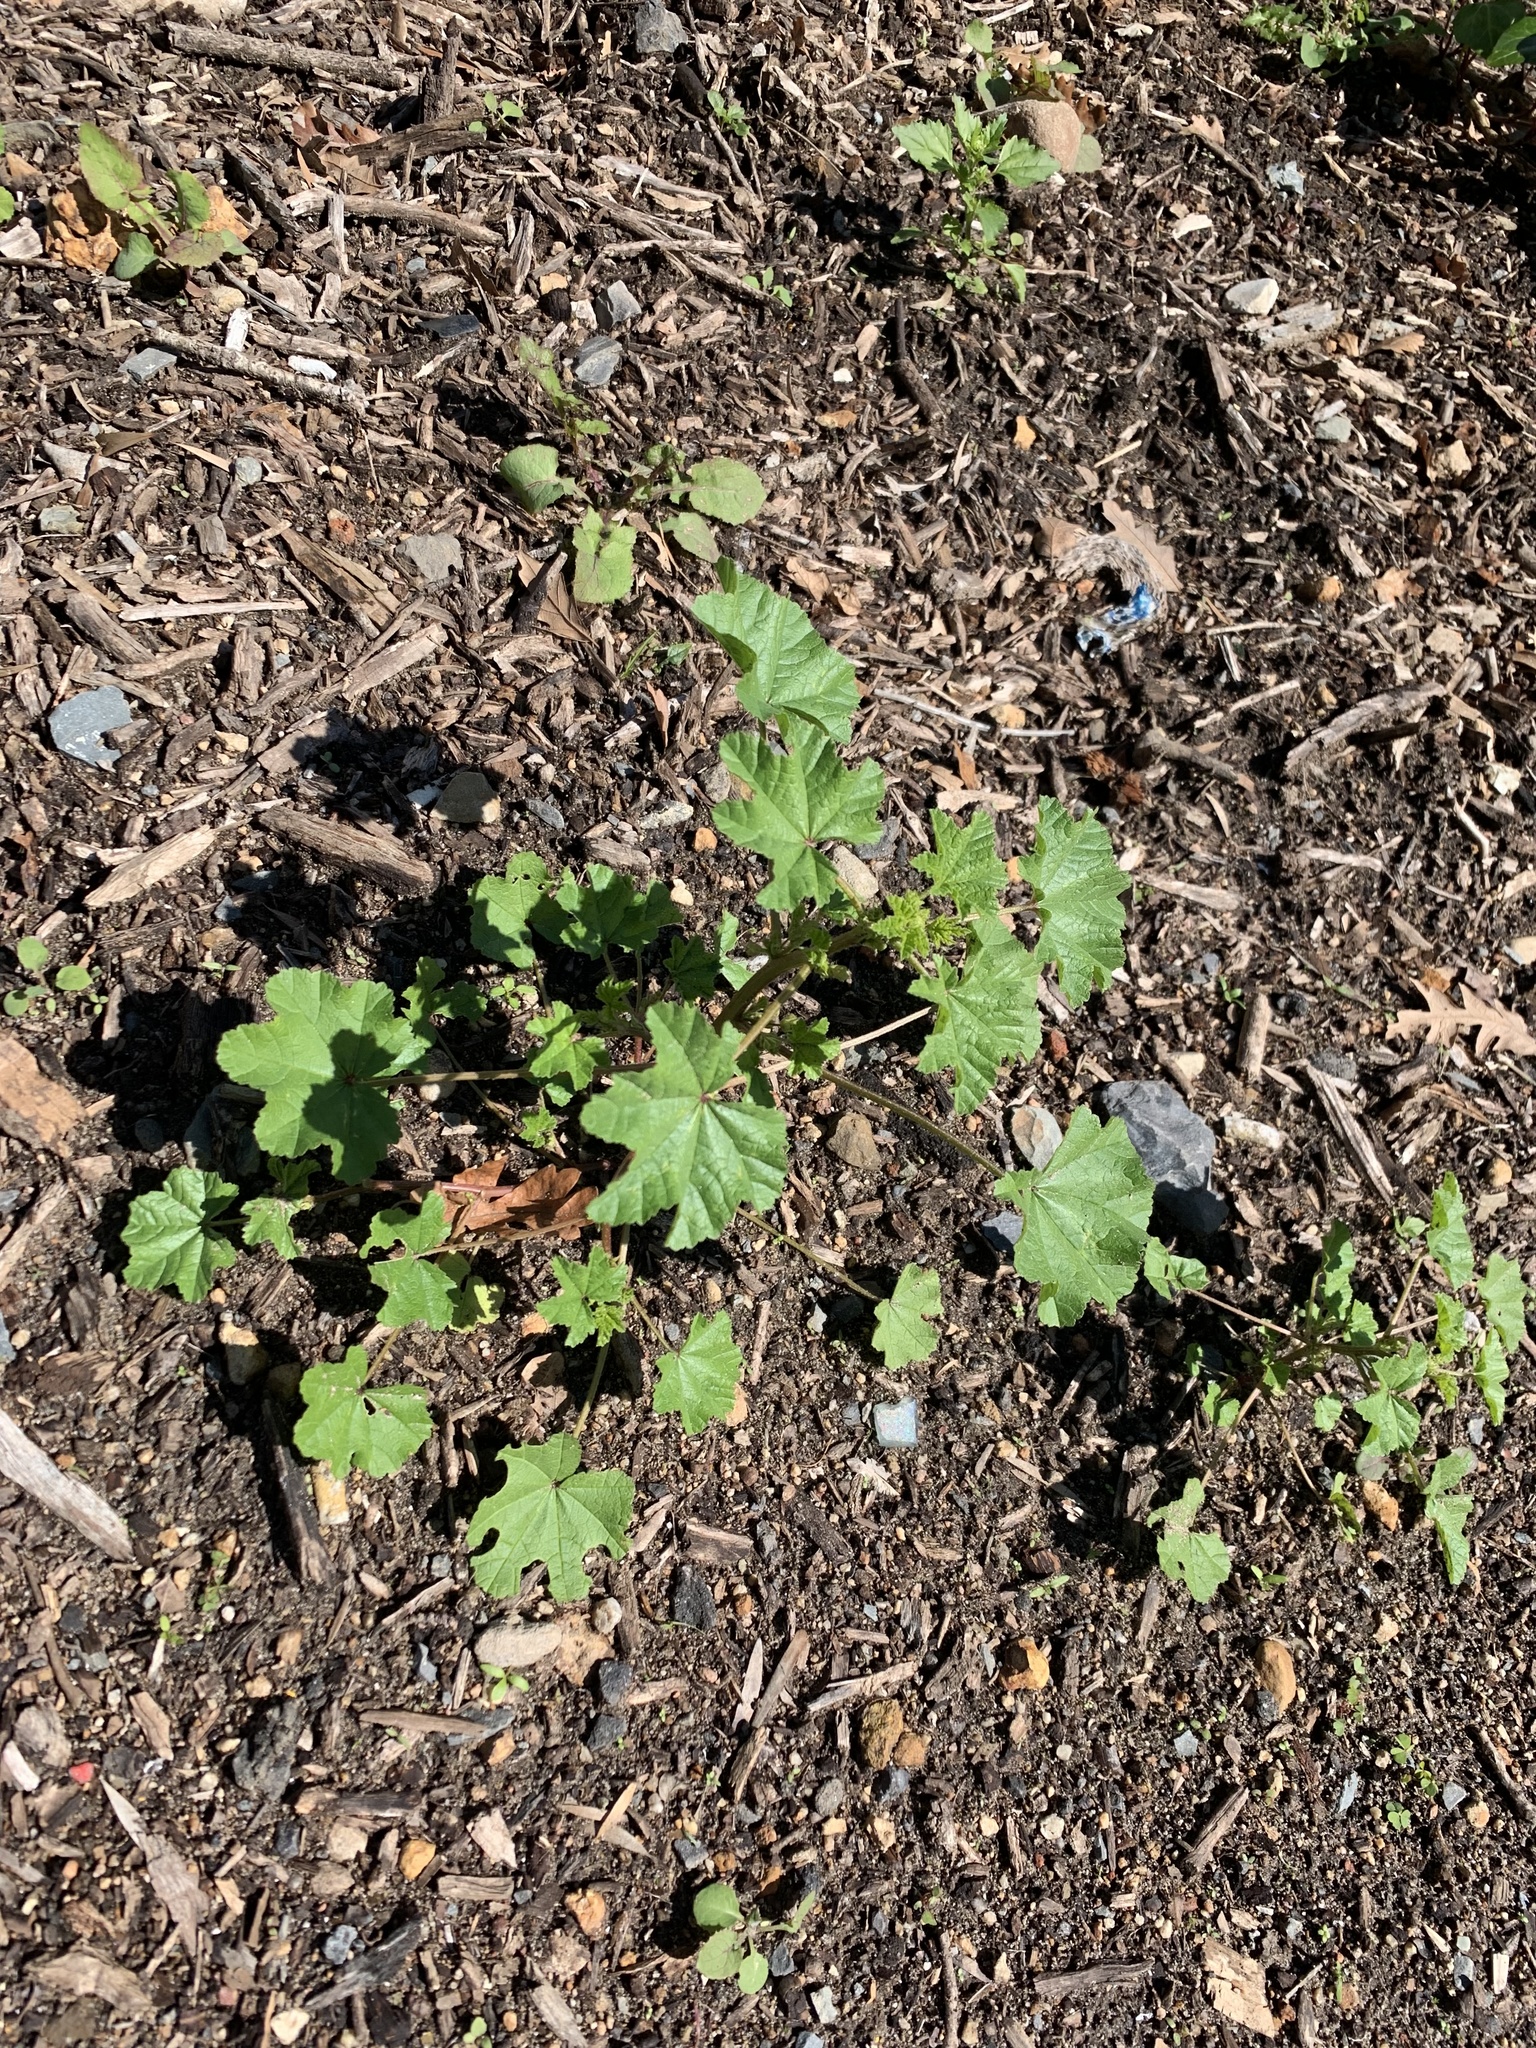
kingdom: Plantae
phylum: Tracheophyta
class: Magnoliopsida
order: Malvales
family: Malvaceae
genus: Malva
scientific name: Malva parviflora
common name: Least mallow
